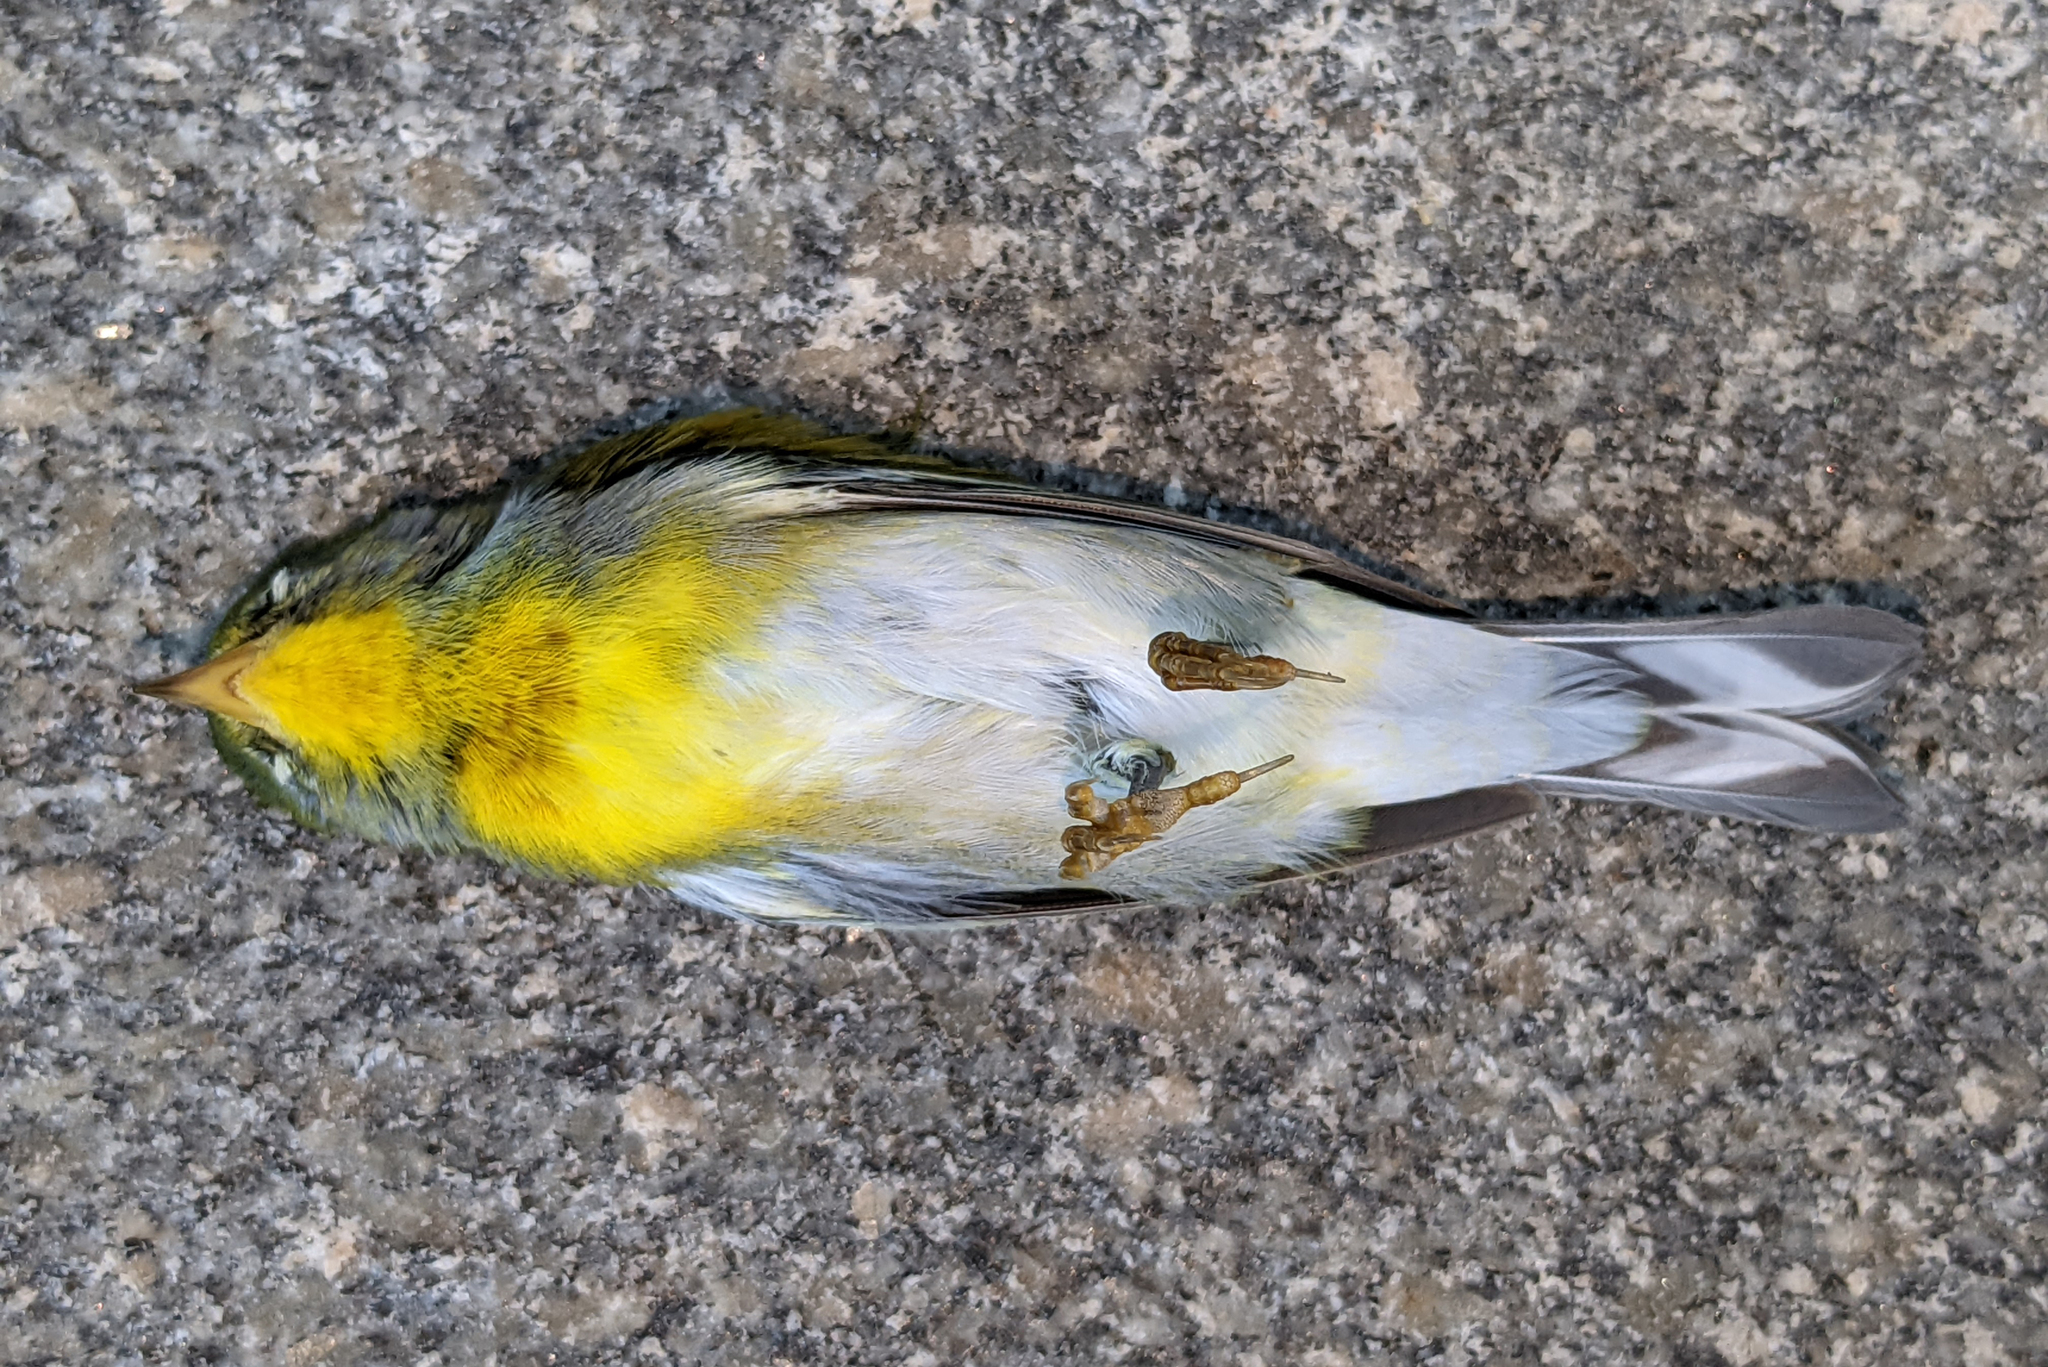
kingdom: Animalia
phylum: Chordata
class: Aves
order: Passeriformes
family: Parulidae
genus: Setophaga
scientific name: Setophaga americana
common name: Northern parula
